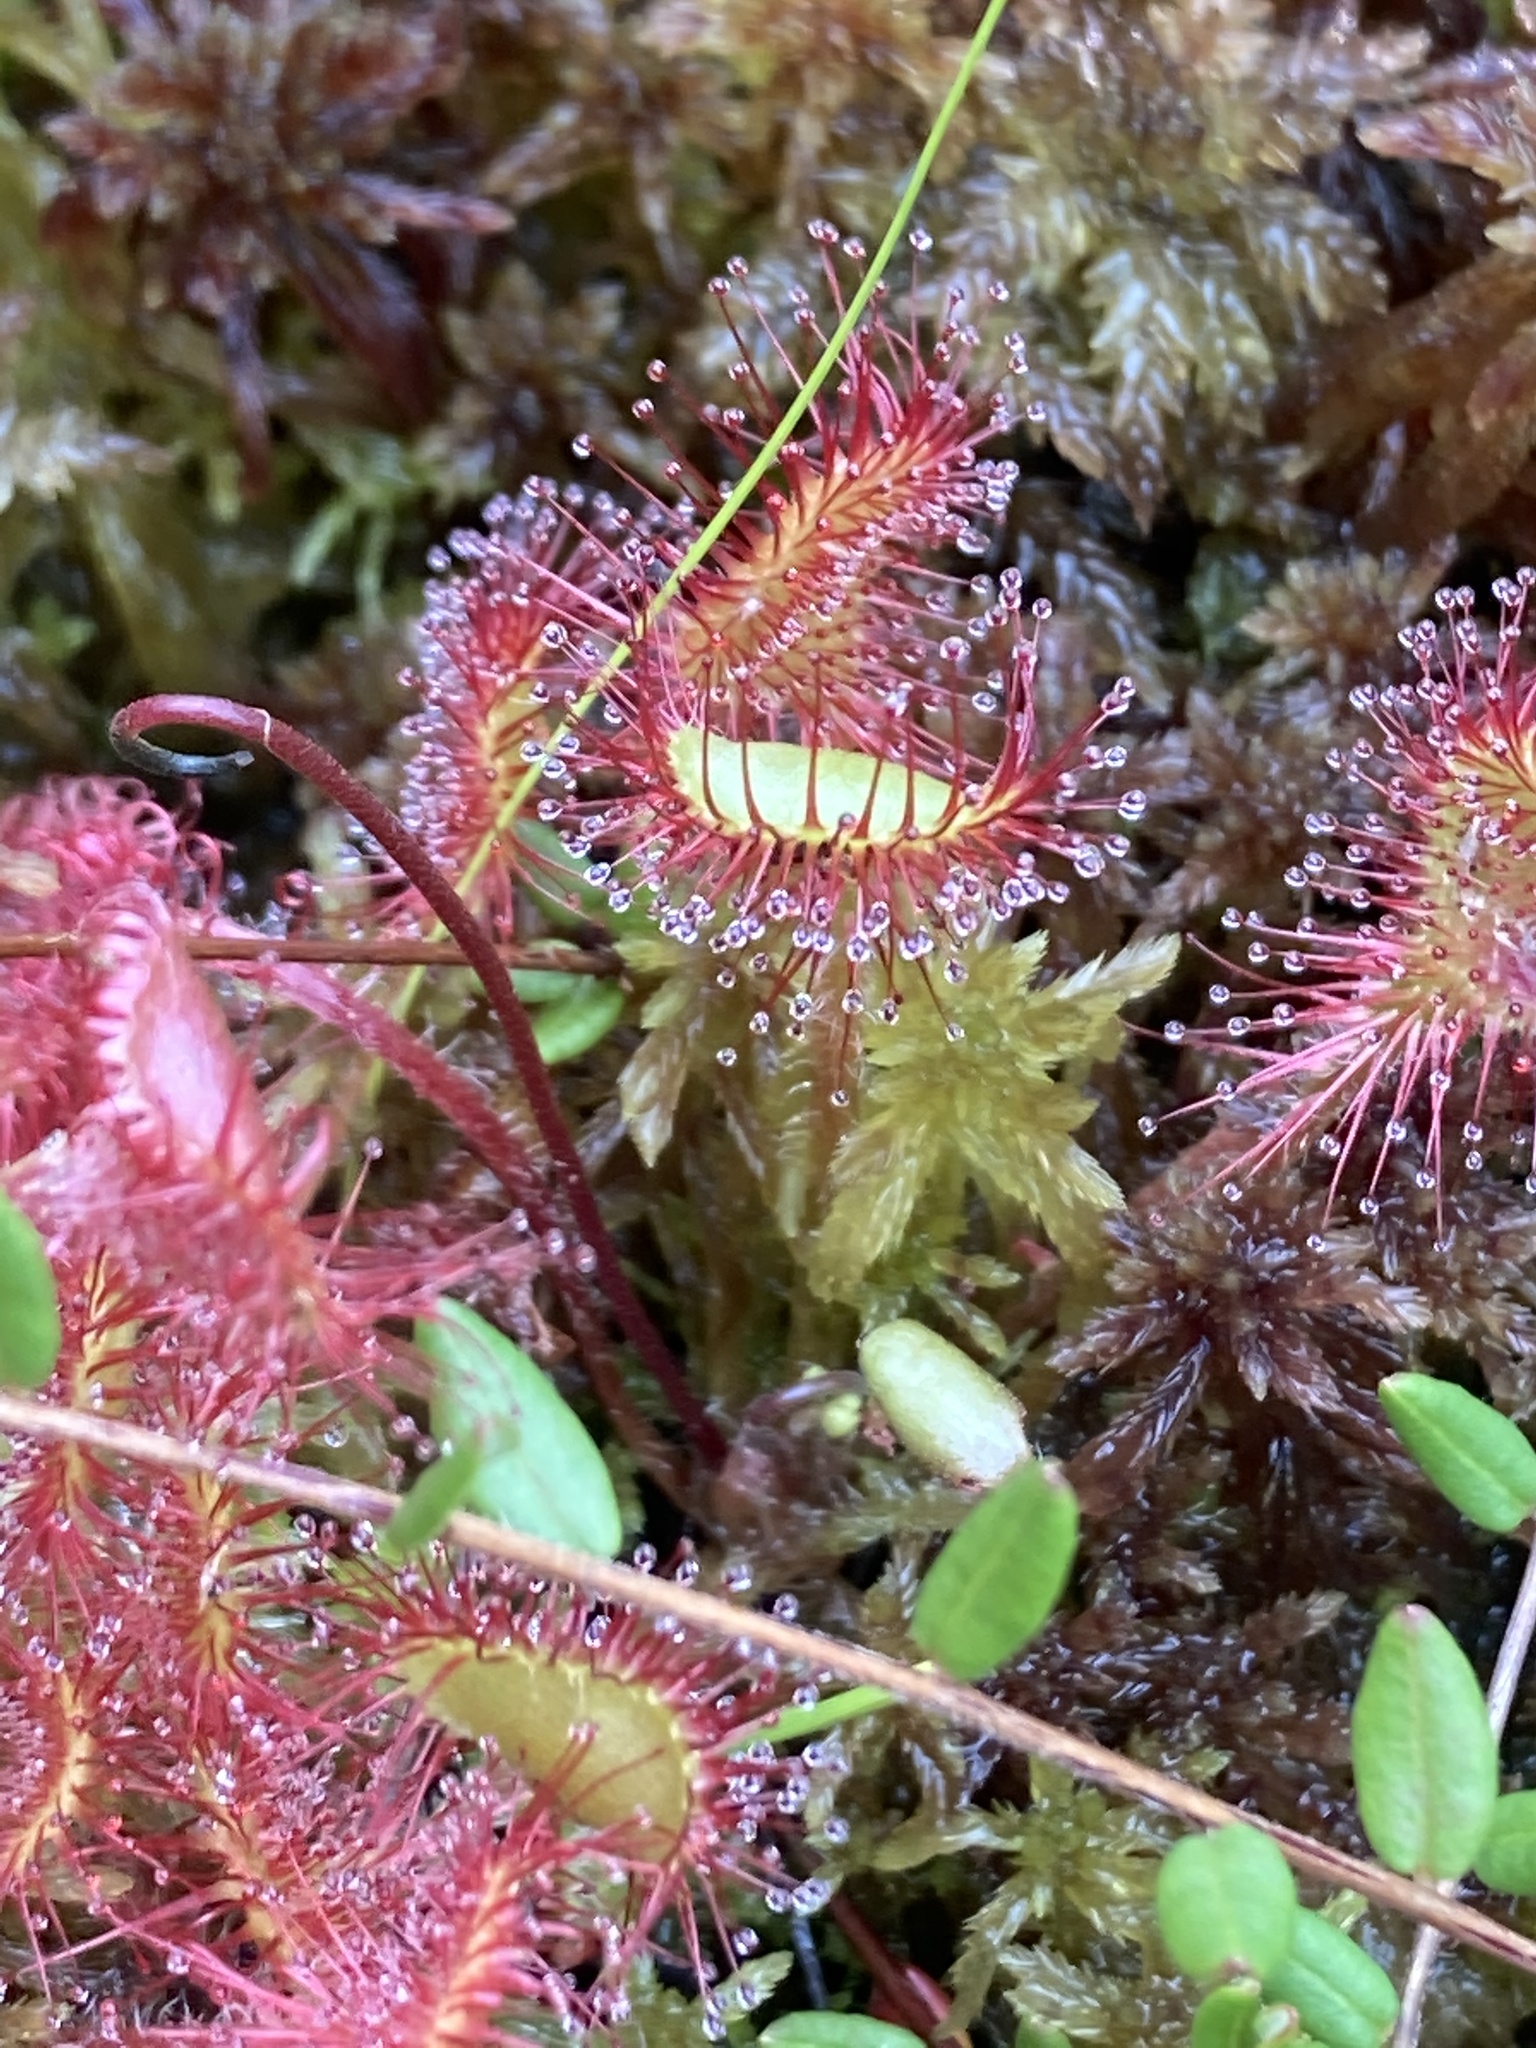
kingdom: Plantae
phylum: Tracheophyta
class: Magnoliopsida
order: Caryophyllales
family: Droseraceae
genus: Drosera
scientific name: Drosera rotundifolia
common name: Round-leaved sundew
